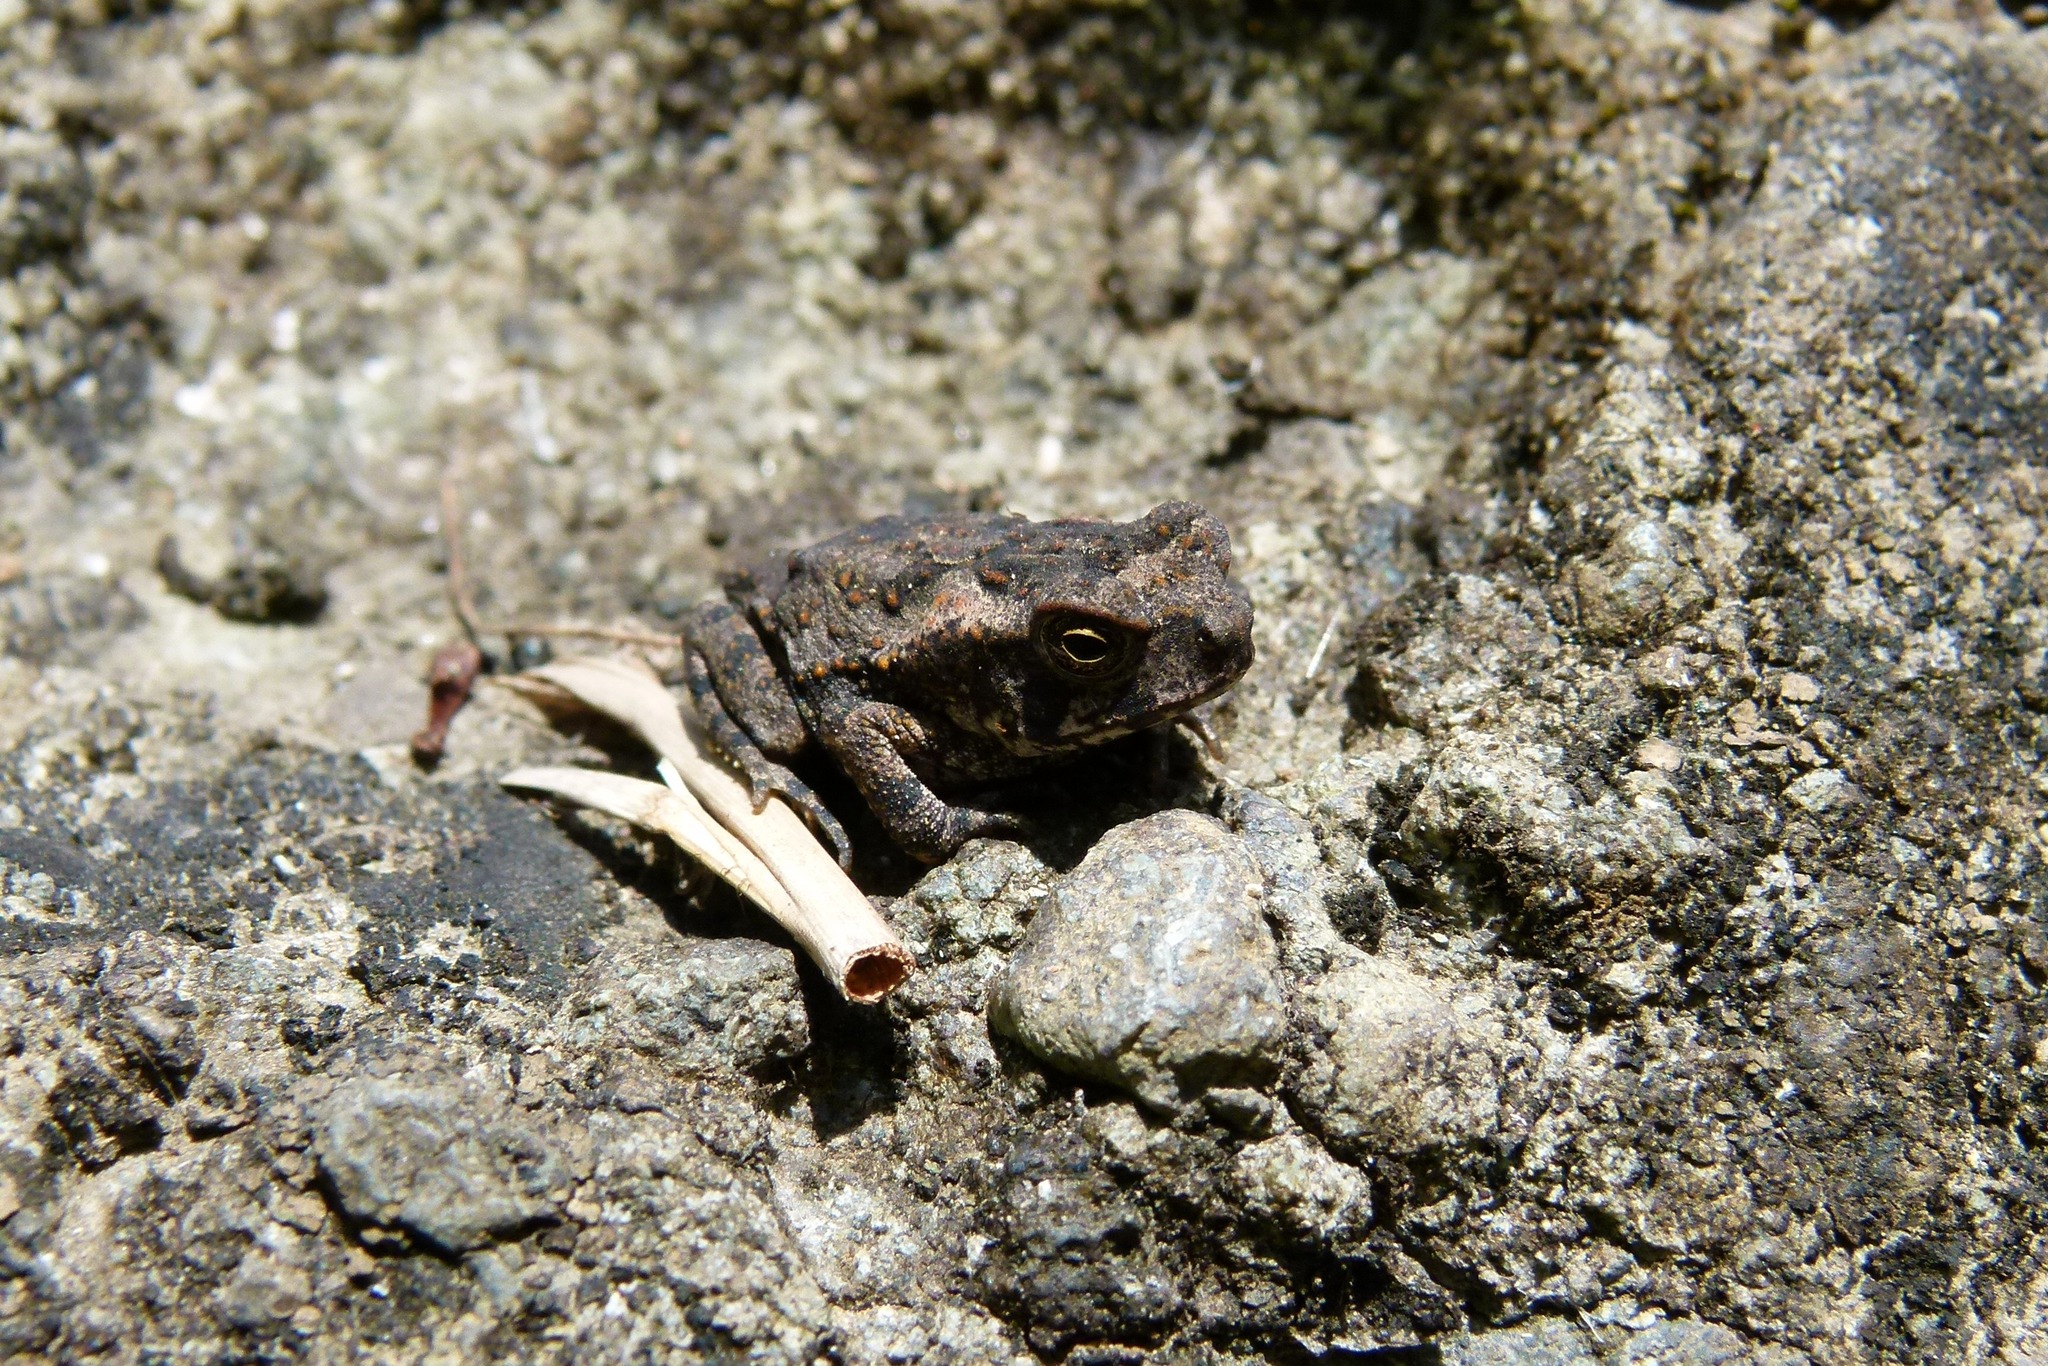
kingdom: Animalia
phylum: Chordata
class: Amphibia
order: Anura
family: Bufonidae
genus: Rhinella
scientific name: Rhinella marina
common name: Cane toad
